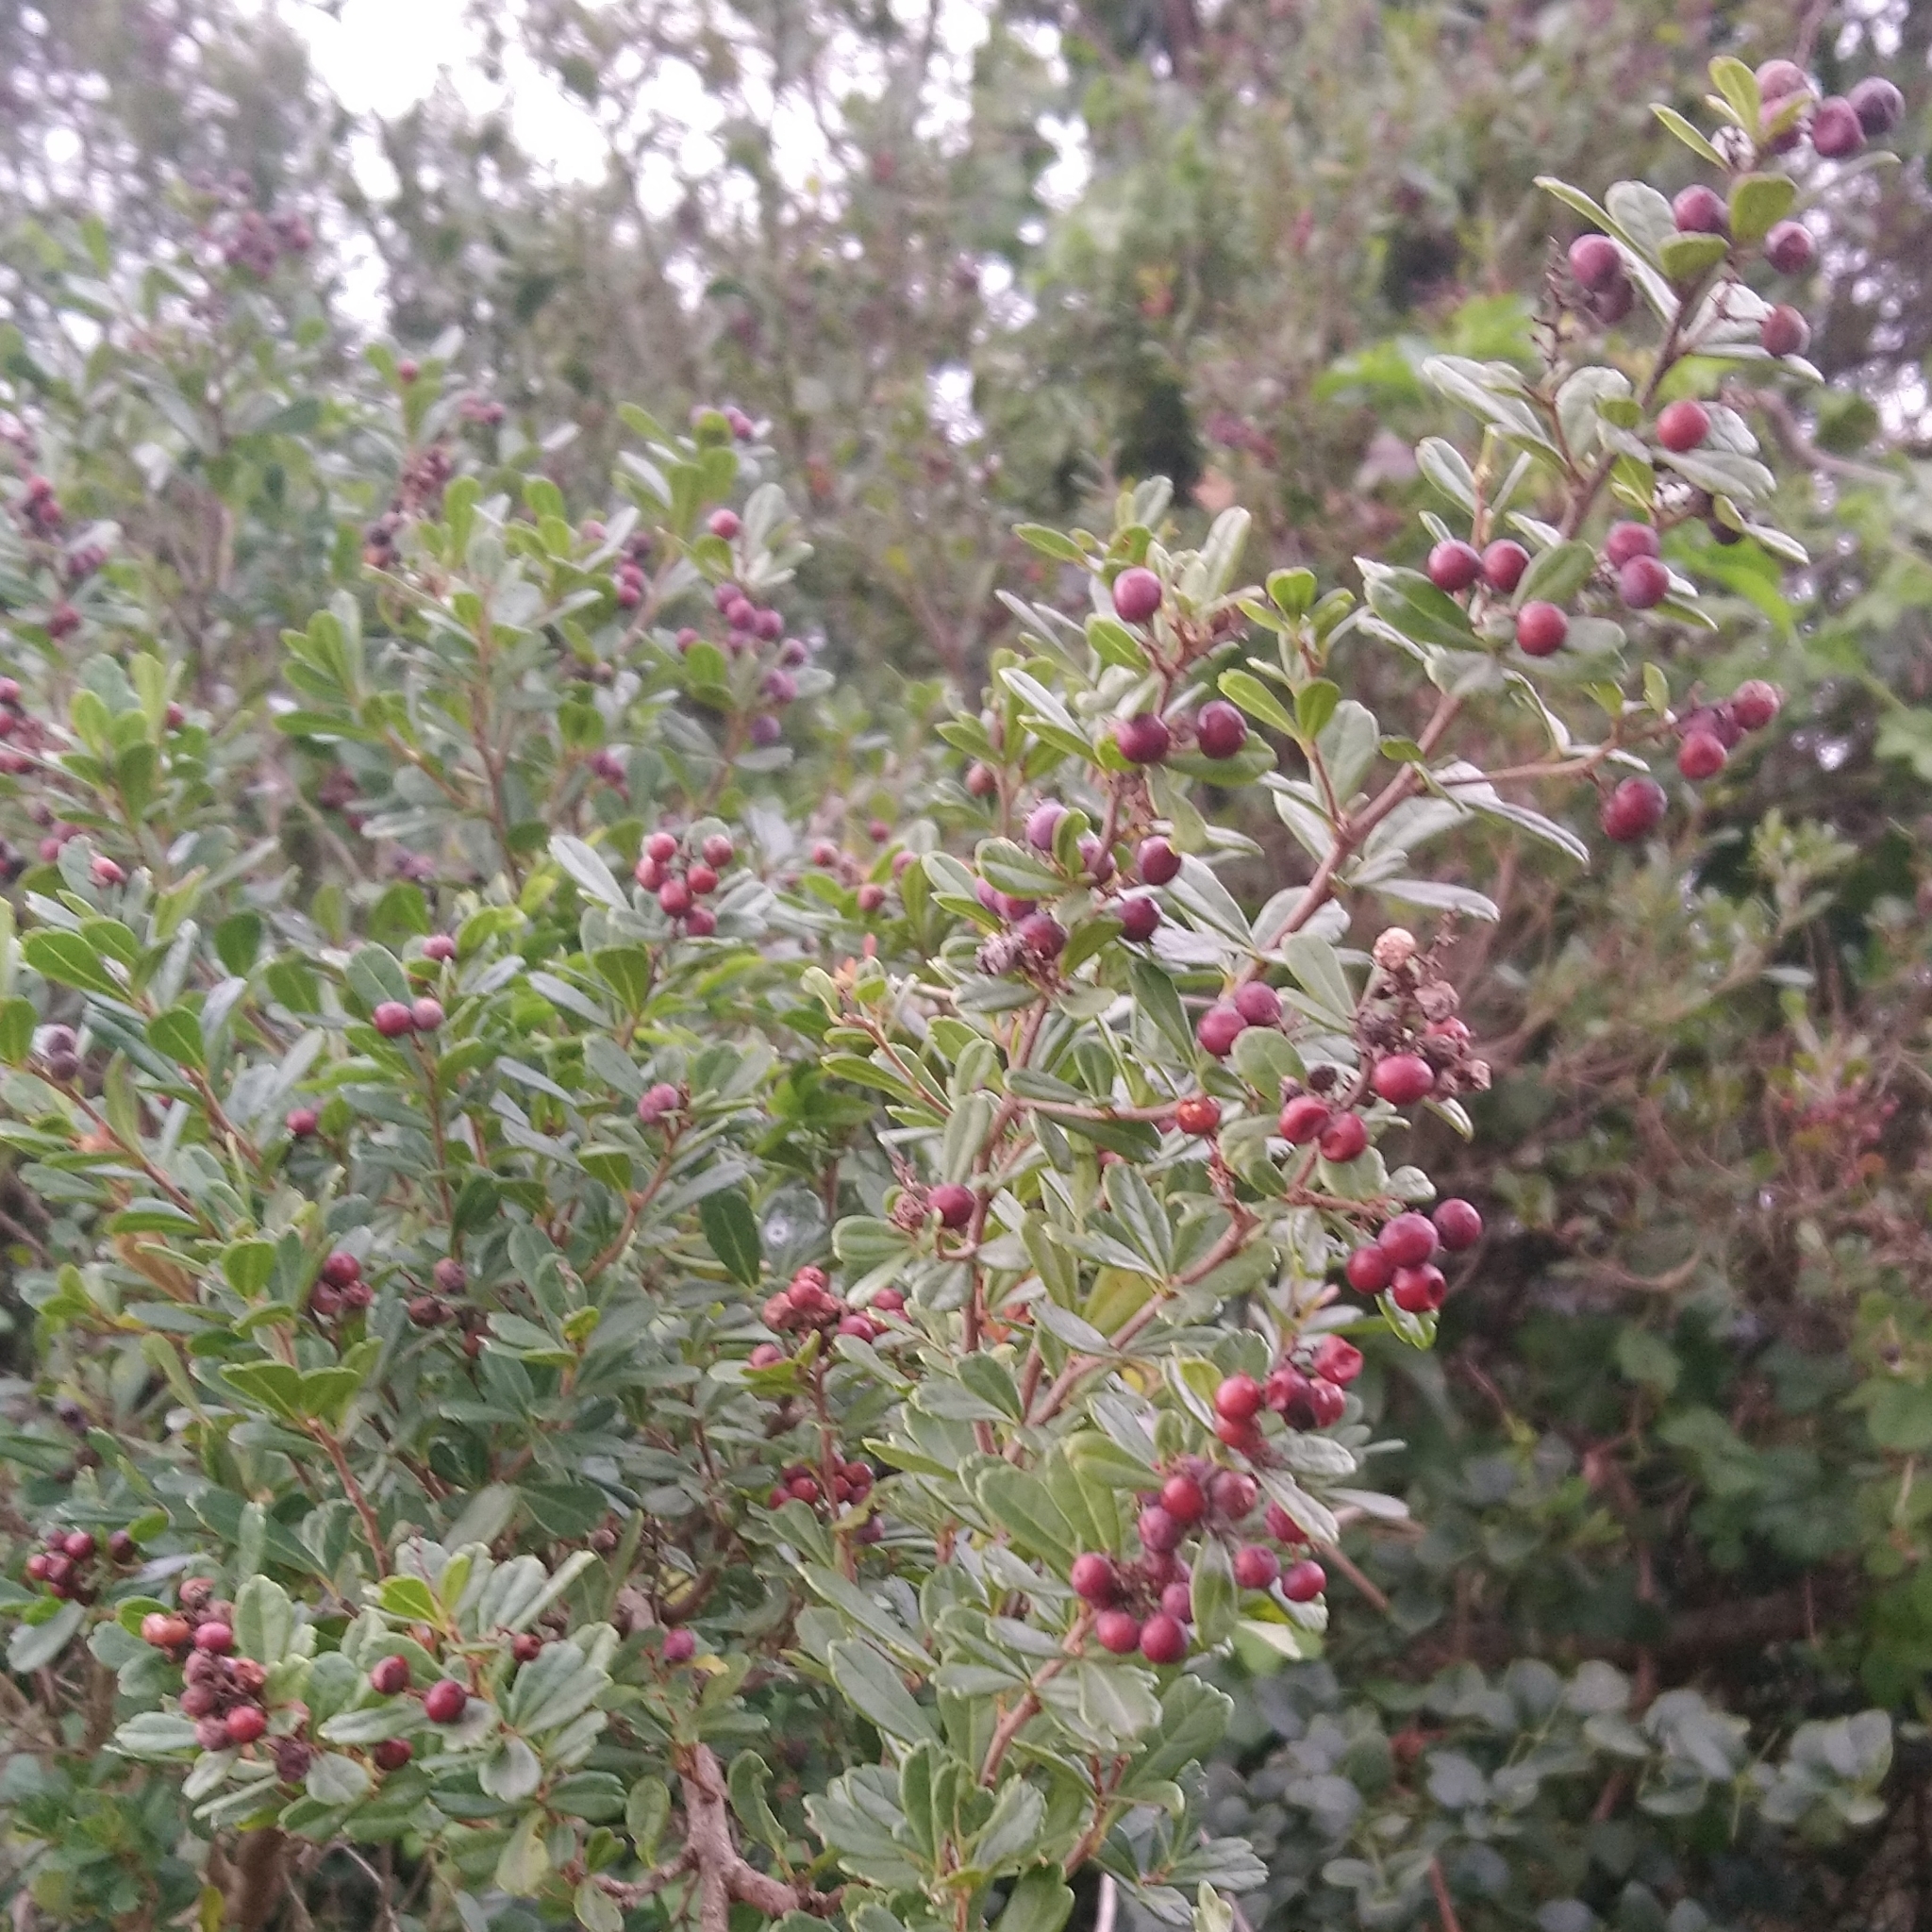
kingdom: Plantae
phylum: Tracheophyta
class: Magnoliopsida
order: Sapindales
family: Anacardiaceae
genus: Searsia
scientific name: Searsia crenata
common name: Crowberry
